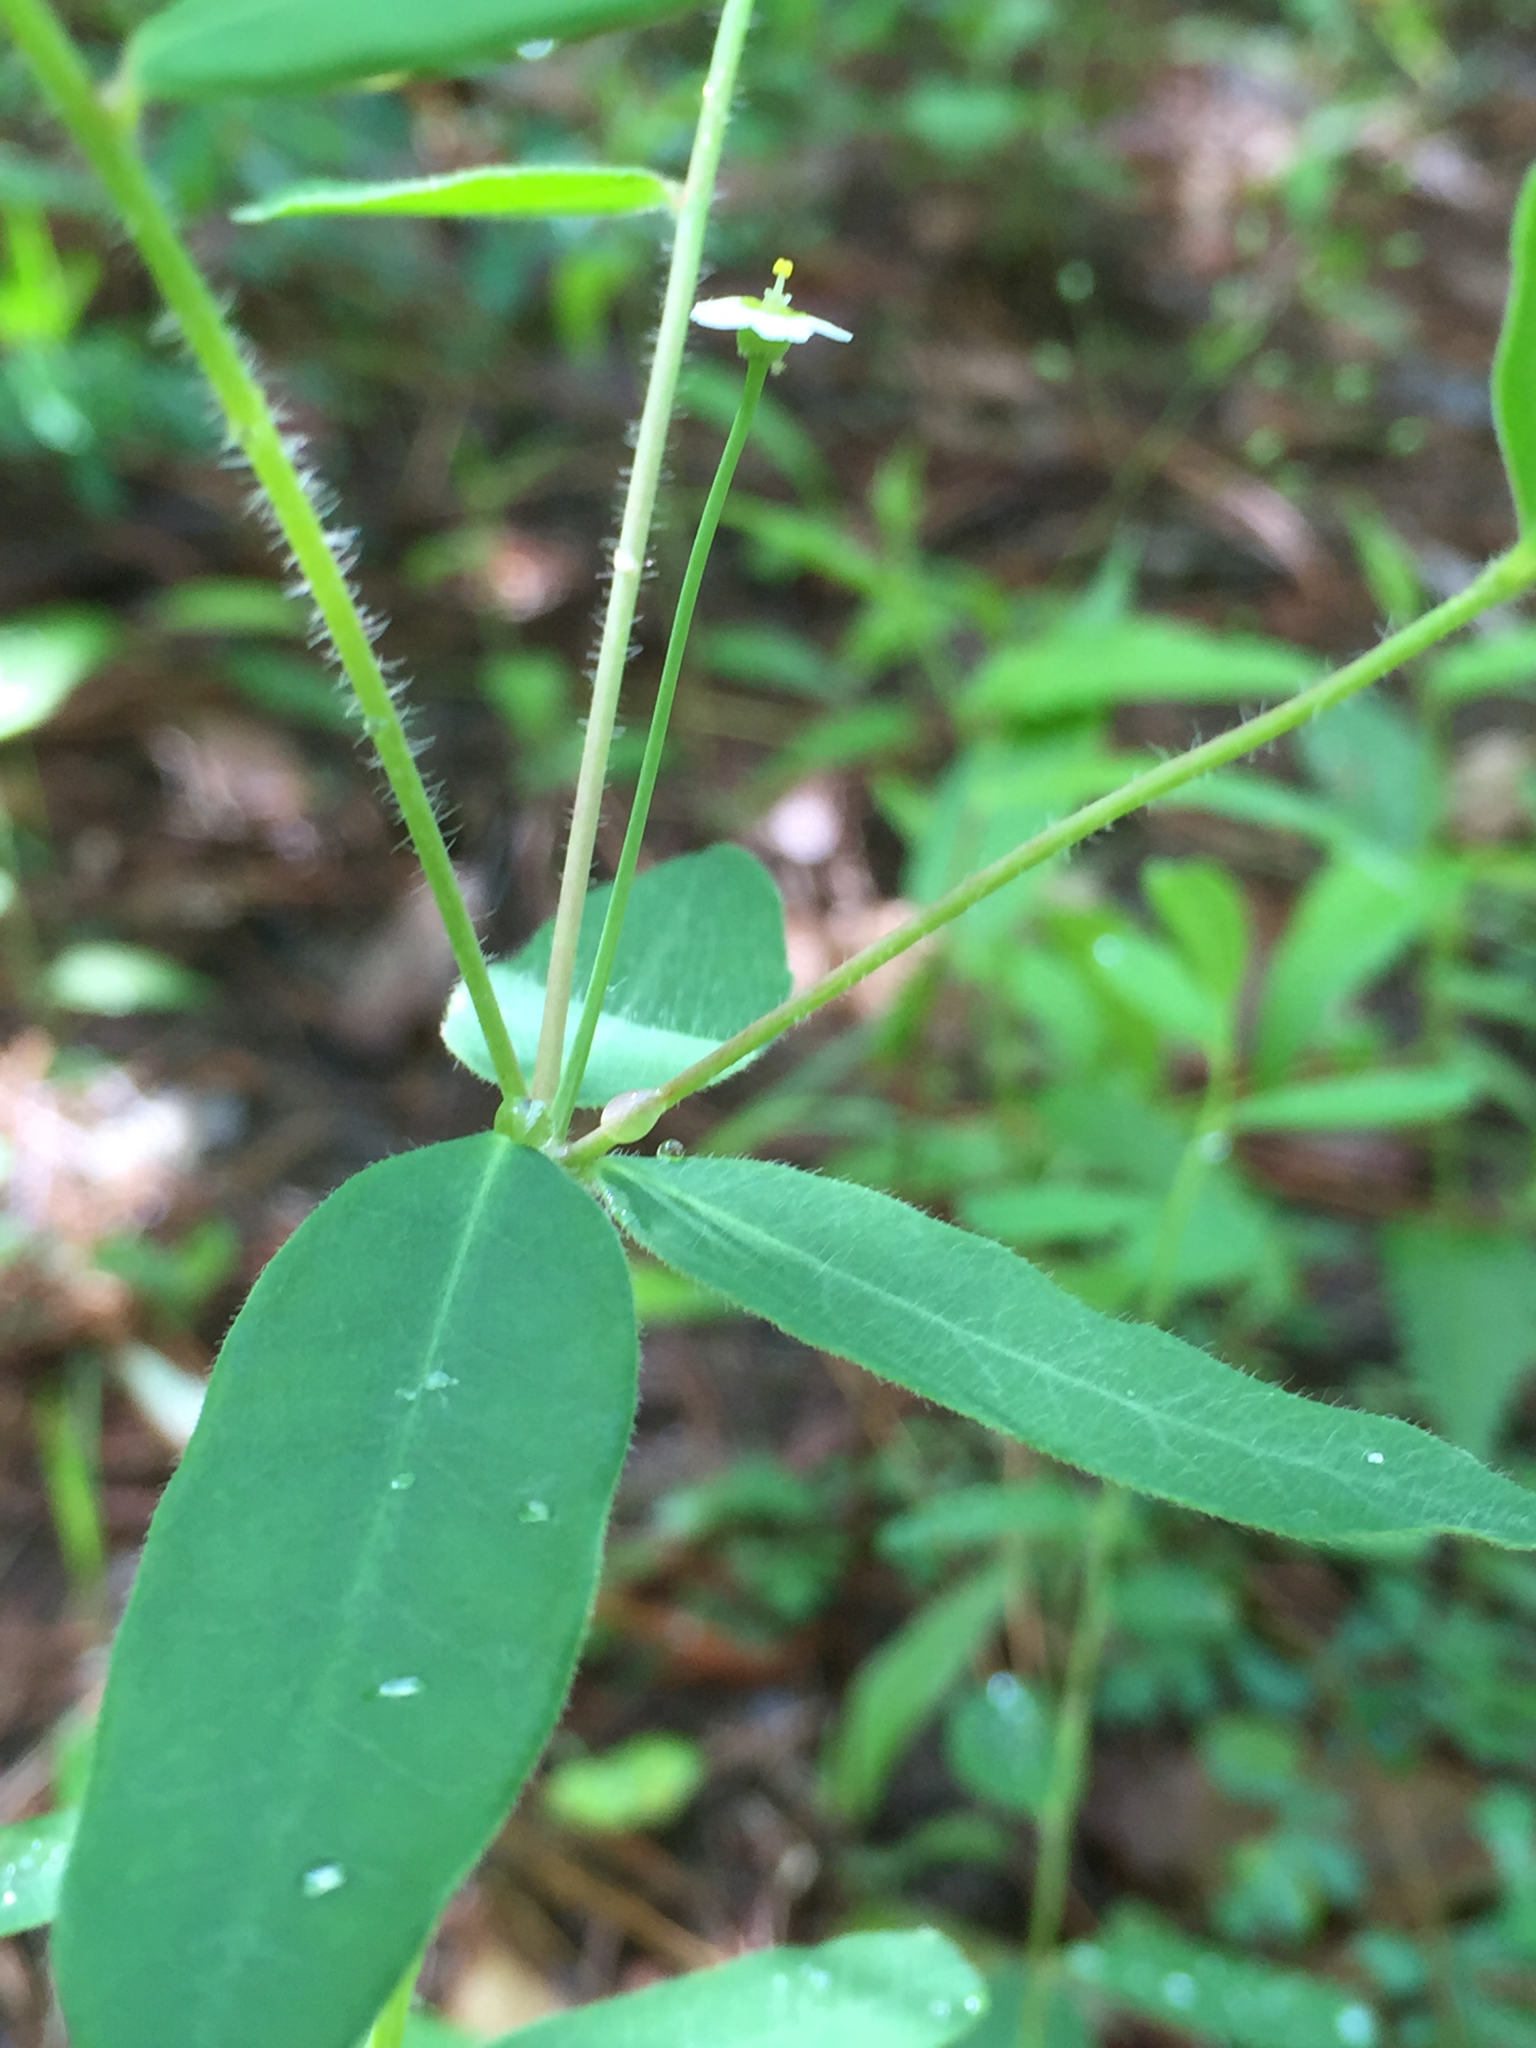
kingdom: Plantae
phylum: Tracheophyta
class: Magnoliopsida
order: Malpighiales
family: Euphorbiaceae
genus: Euphorbia
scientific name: Euphorbia corollata
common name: Flowering spurge
